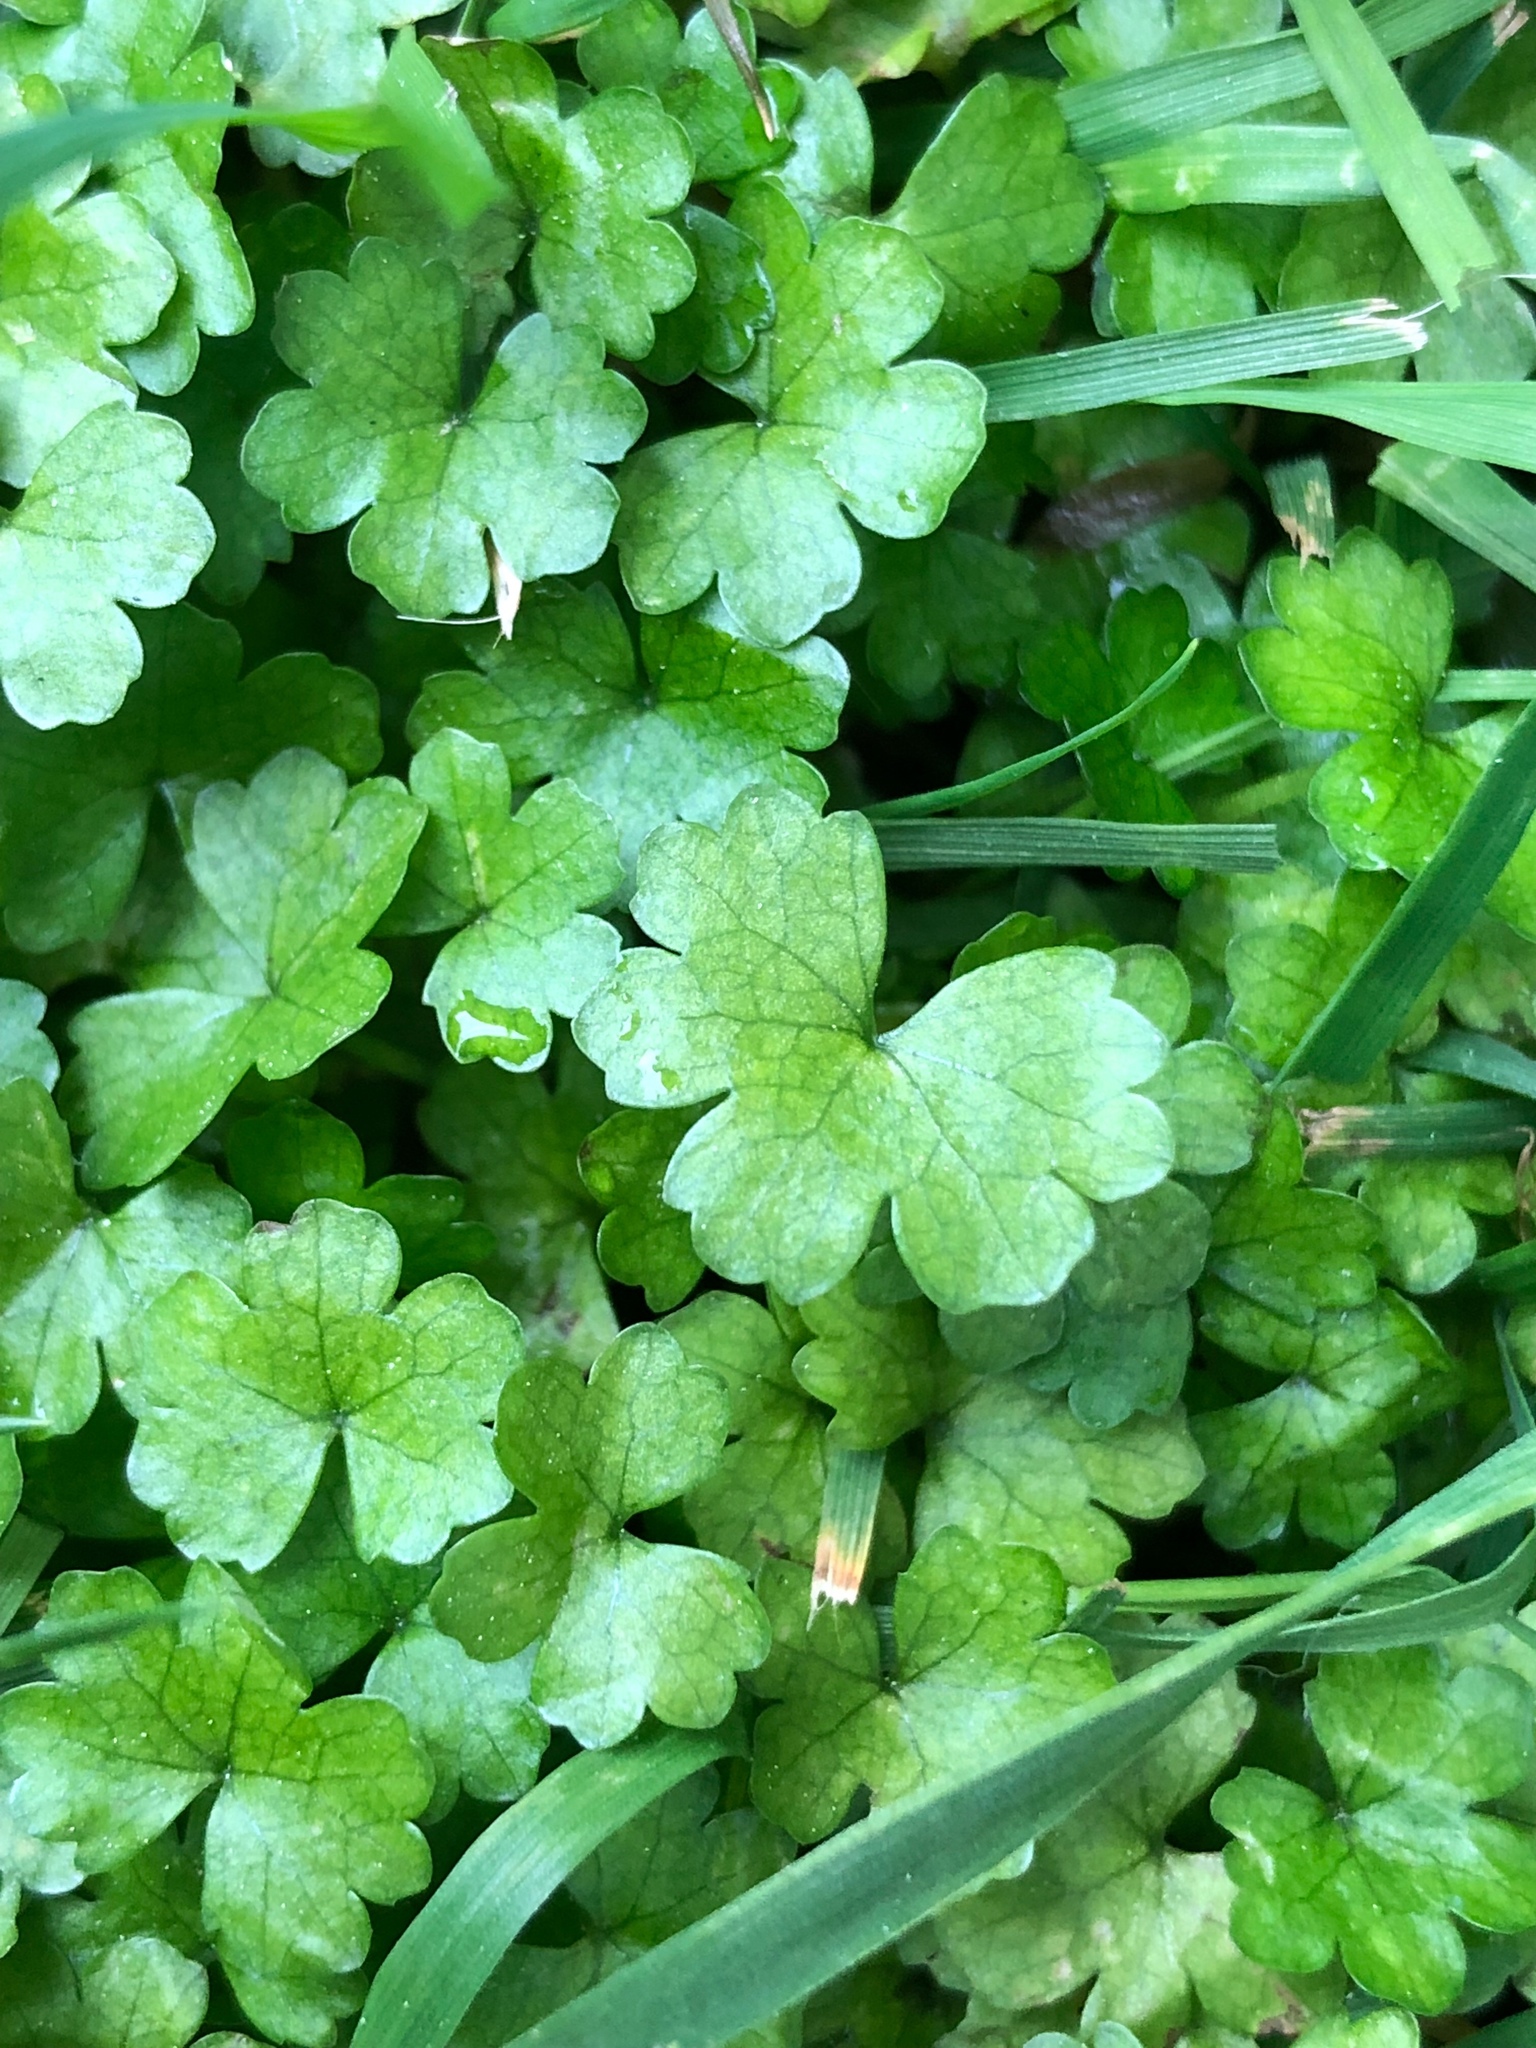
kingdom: Plantae
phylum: Tracheophyta
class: Magnoliopsida
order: Apiales
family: Araliaceae
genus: Hydrocotyle
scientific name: Hydrocotyle heteromeria
